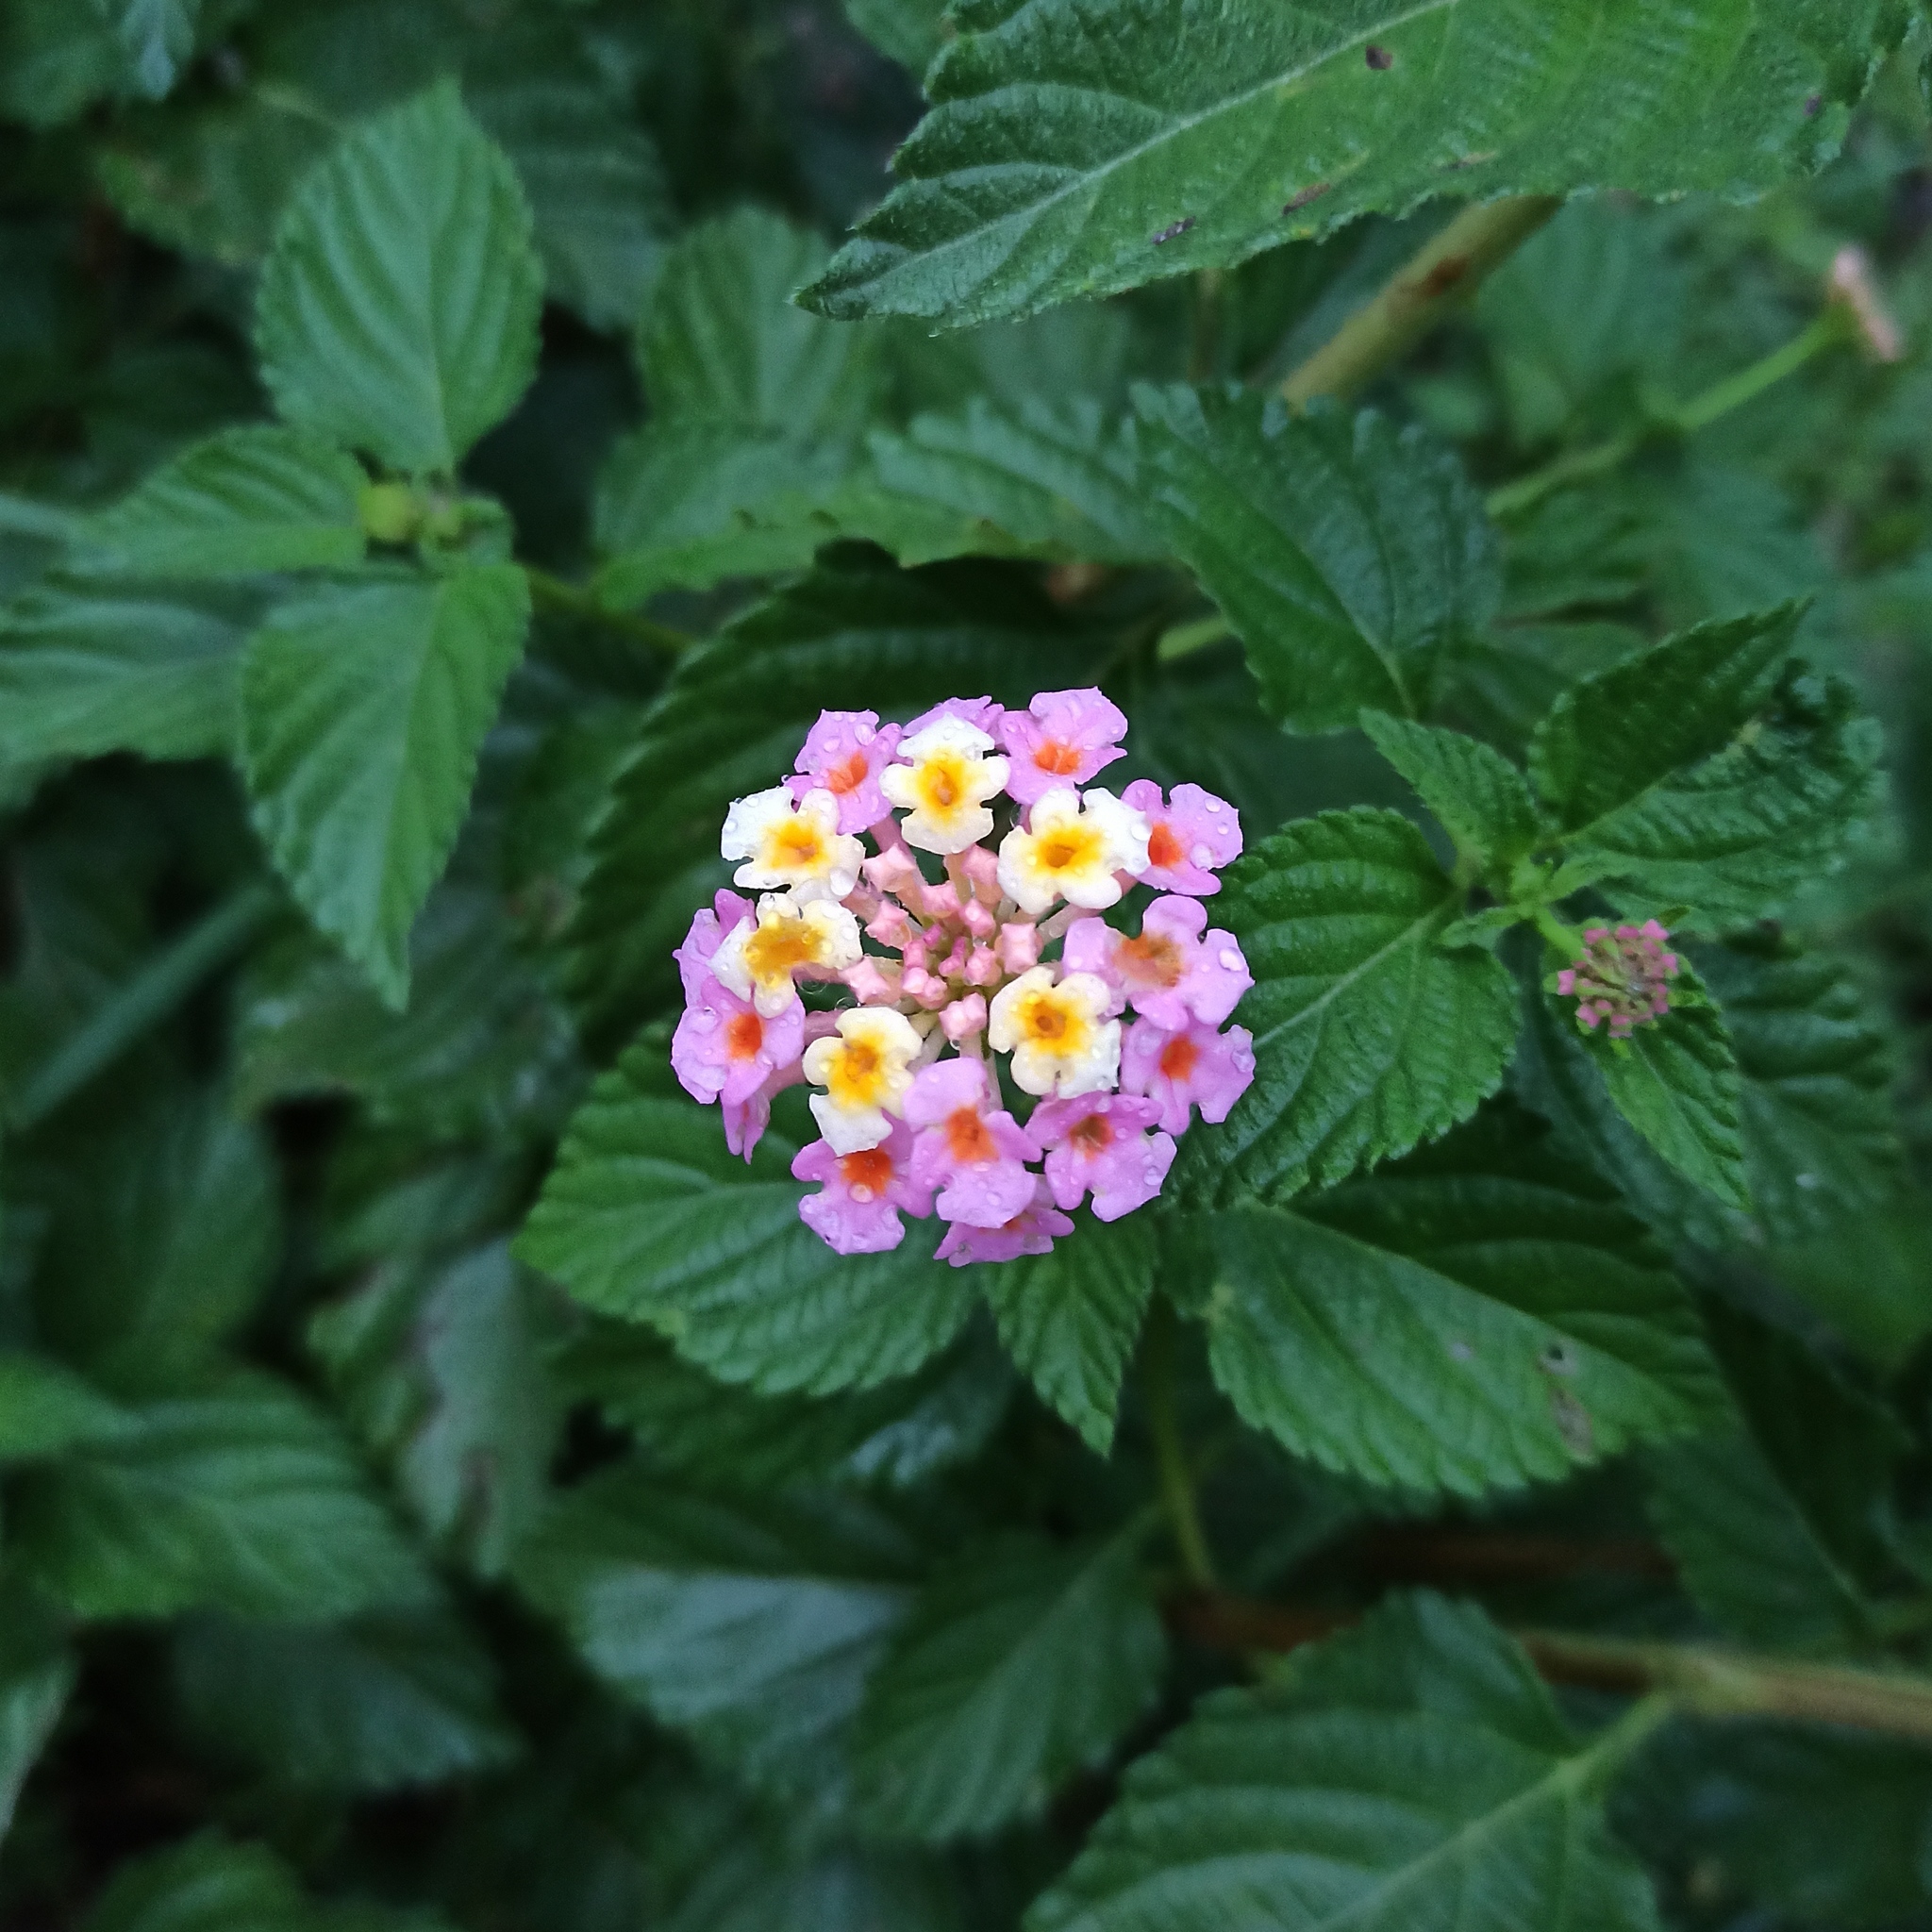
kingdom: Plantae
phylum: Tracheophyta
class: Magnoliopsida
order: Lamiales
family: Verbenaceae
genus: Lantana
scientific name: Lantana camara
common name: Lantana
